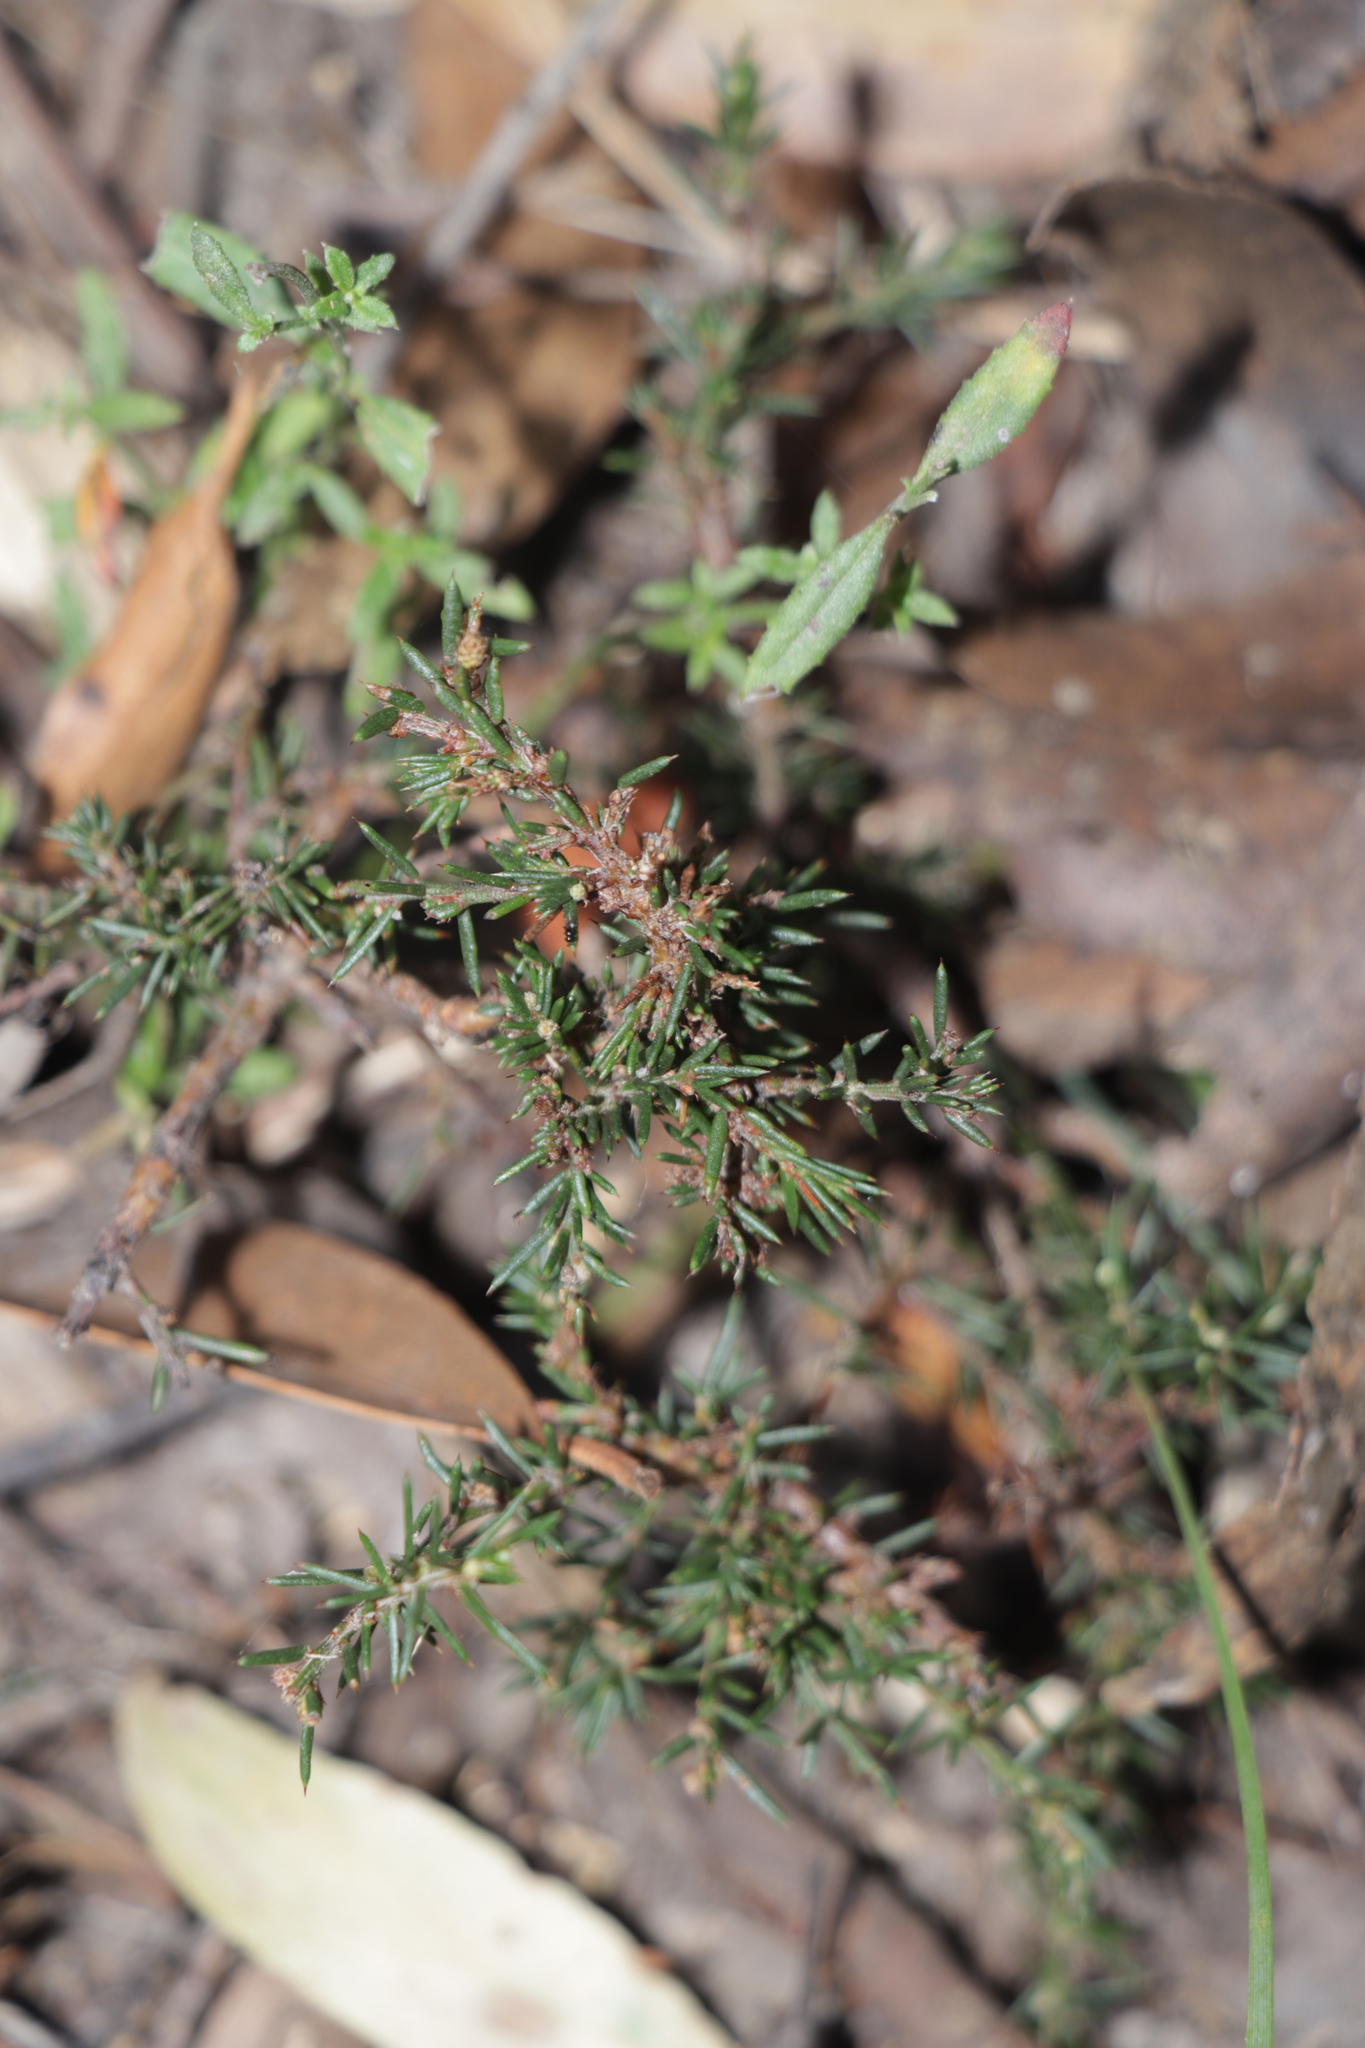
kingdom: Plantae
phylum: Tracheophyta
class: Magnoliopsida
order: Fabales
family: Fabaceae
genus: Acacia
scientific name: Acacia aculeatissima
